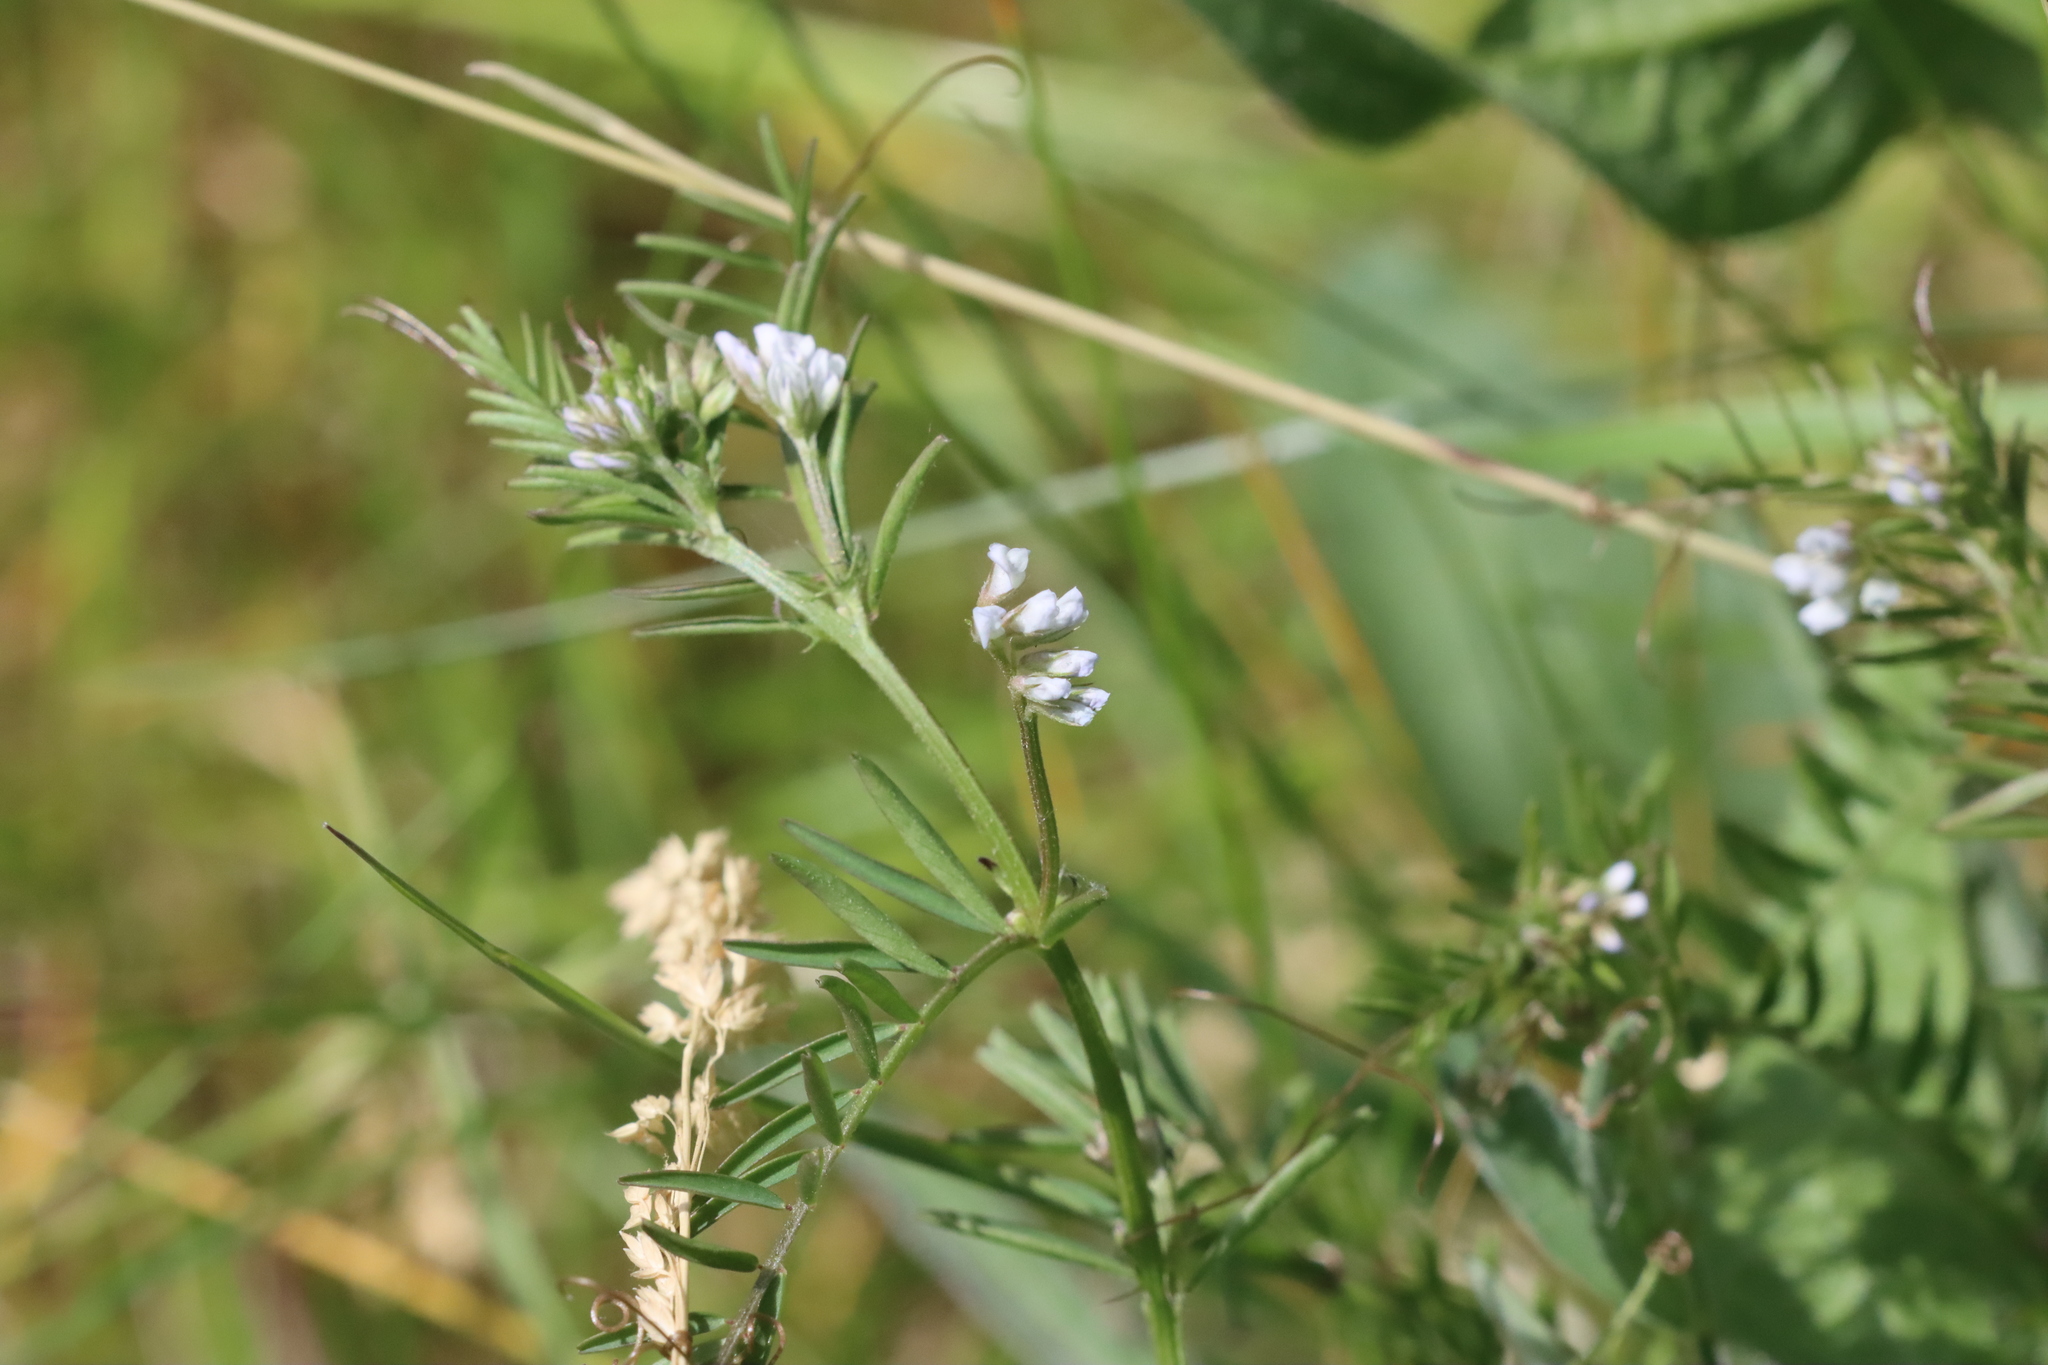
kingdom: Plantae
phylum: Tracheophyta
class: Magnoliopsida
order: Fabales
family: Fabaceae
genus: Vicia
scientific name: Vicia hirsuta
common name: Tiny vetch
